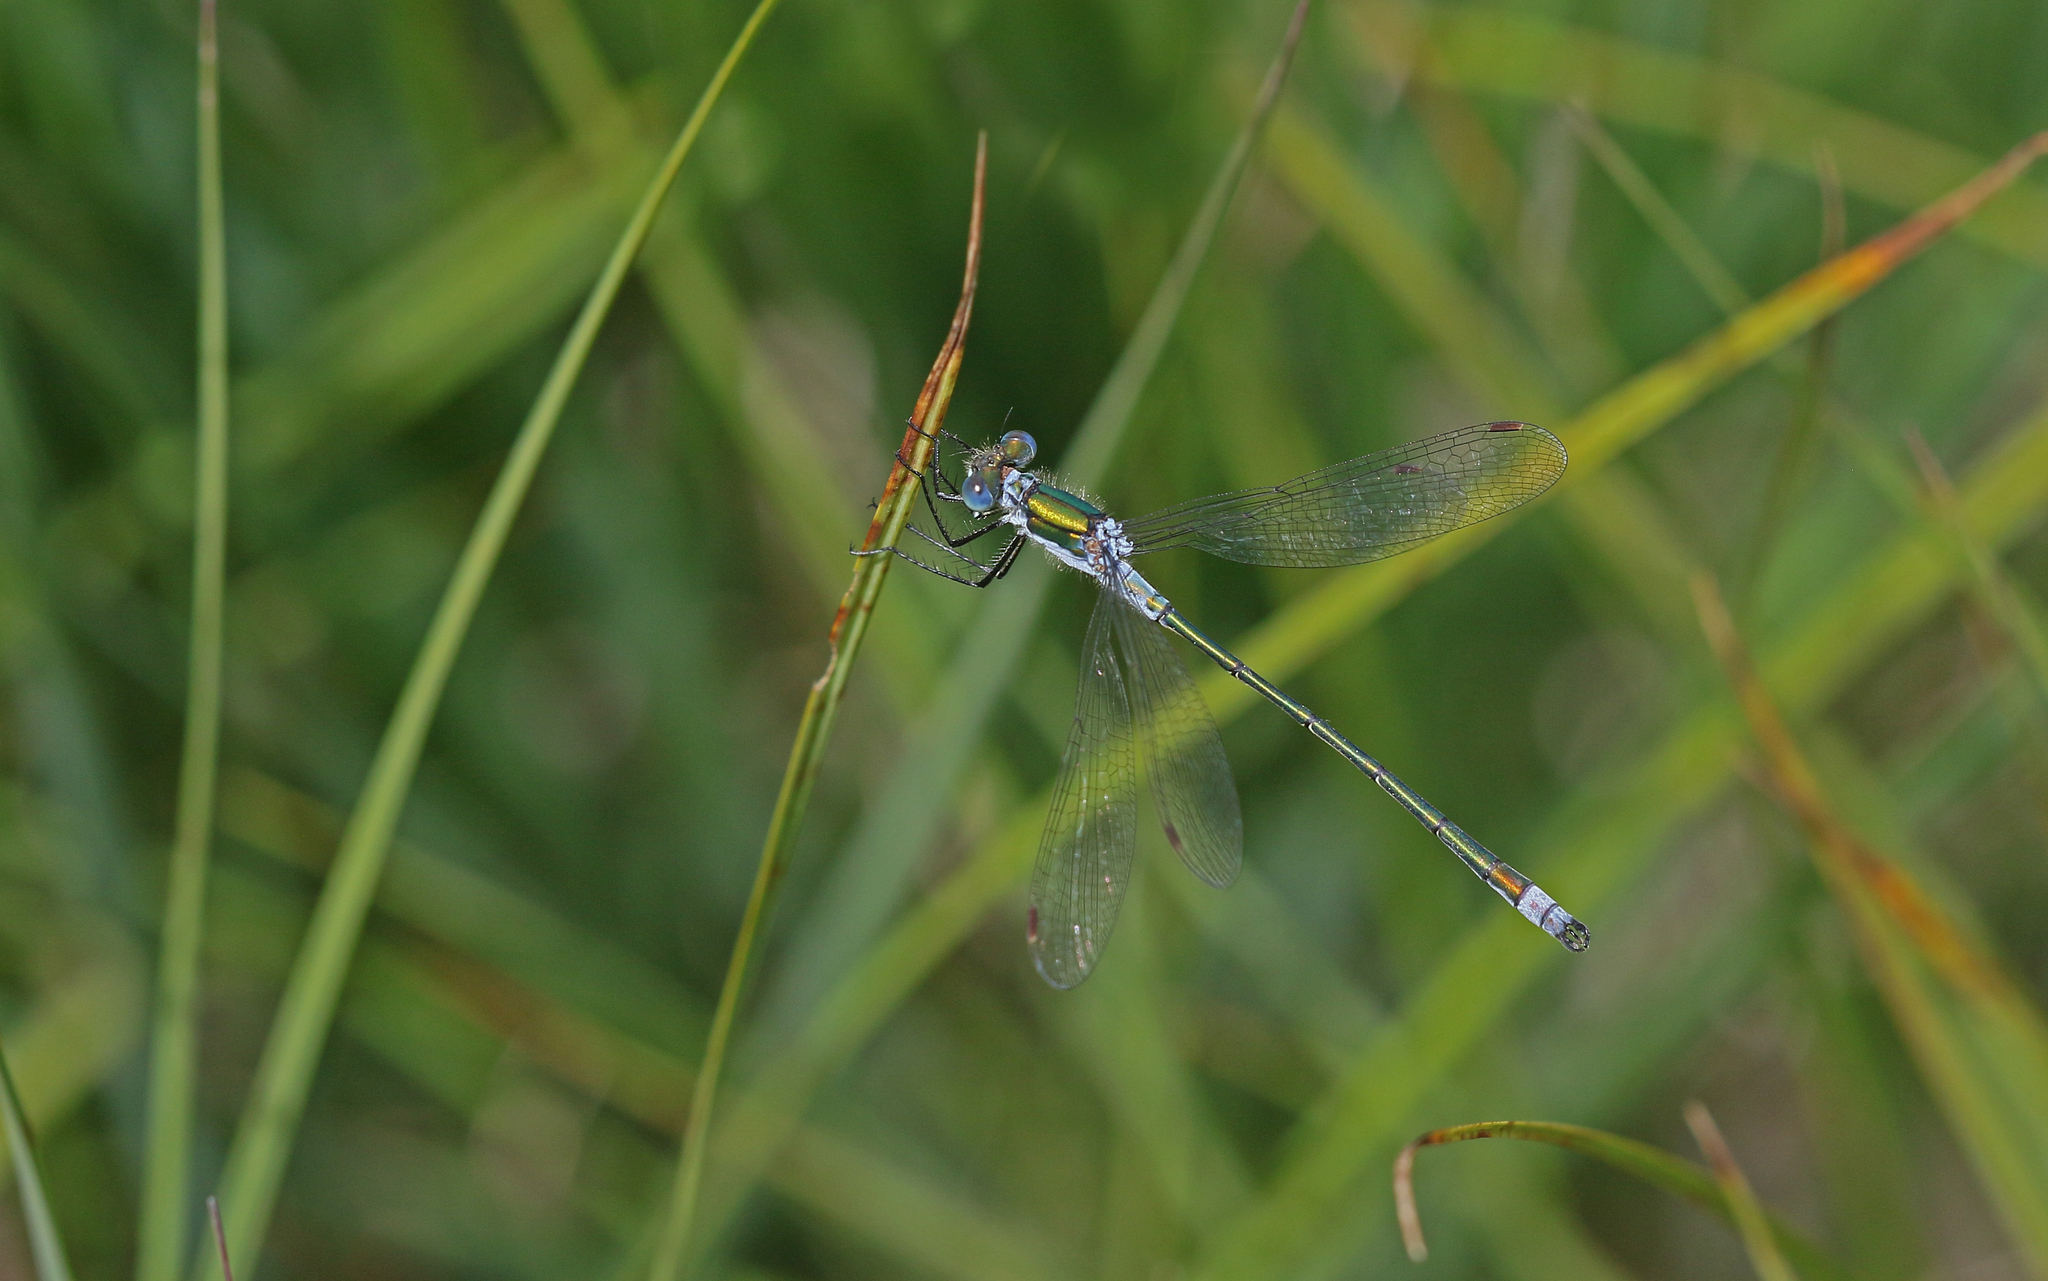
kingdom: Animalia
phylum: Arthropoda
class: Insecta
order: Odonata
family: Lestidae
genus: Lestes
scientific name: Lestes sponsa
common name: Common spreadwing
